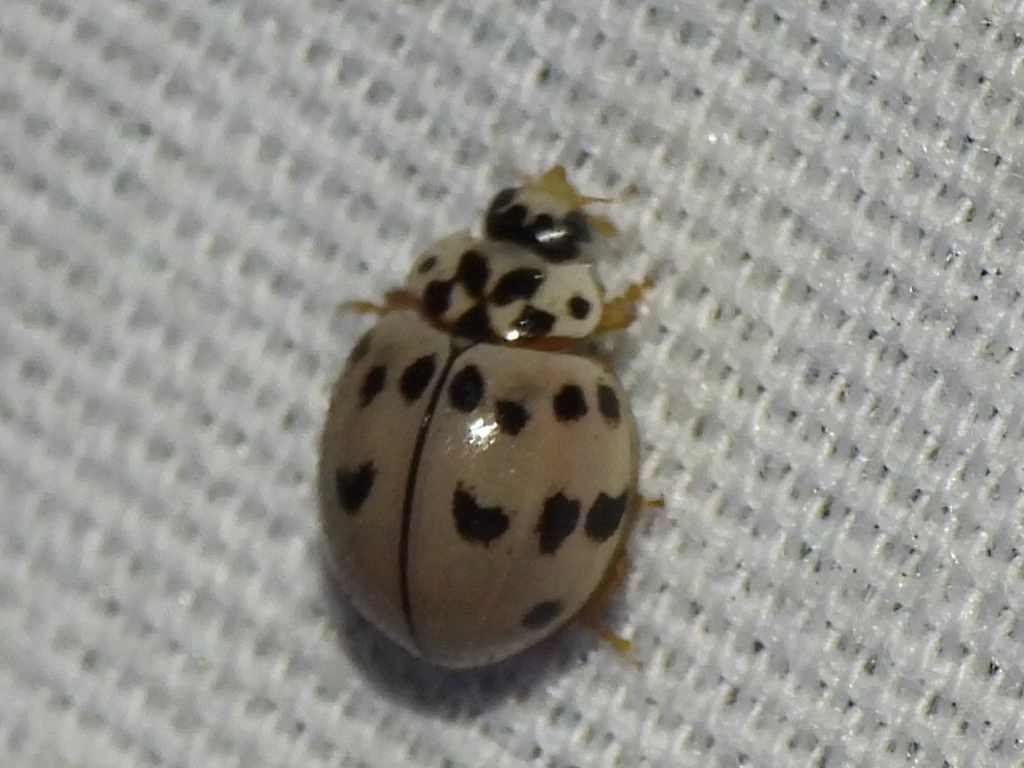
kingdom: Animalia
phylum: Arthropoda
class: Insecta
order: Coleoptera
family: Coccinellidae
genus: Olla
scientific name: Olla v-nigrum
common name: Ashy gray lady beetle
